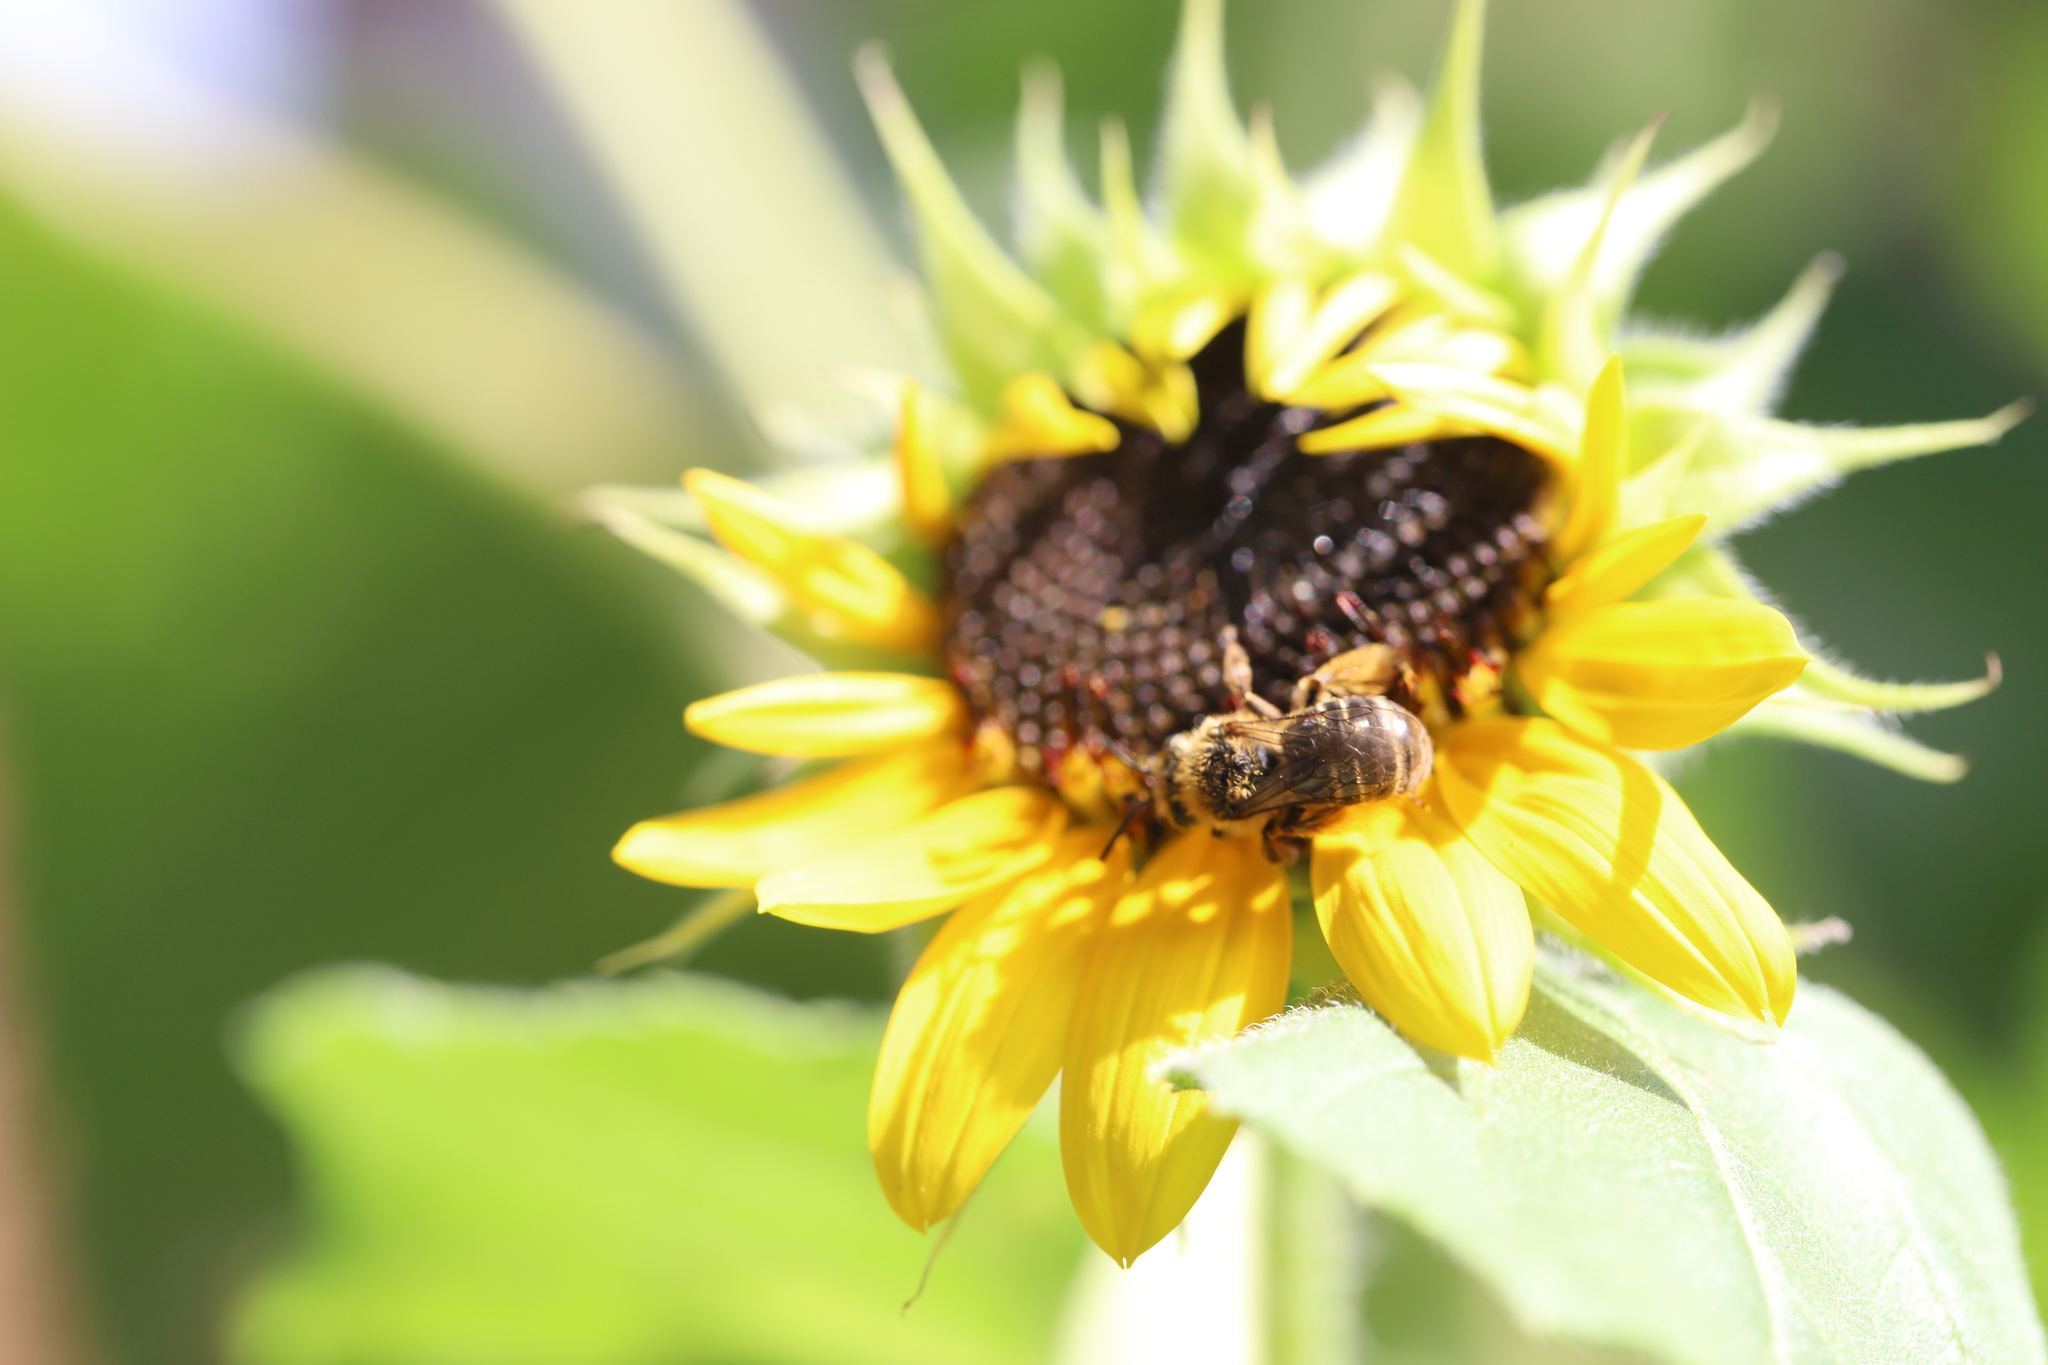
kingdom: Animalia
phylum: Arthropoda
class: Insecta
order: Hymenoptera
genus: Eumelissodes
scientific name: Eumelissodes
